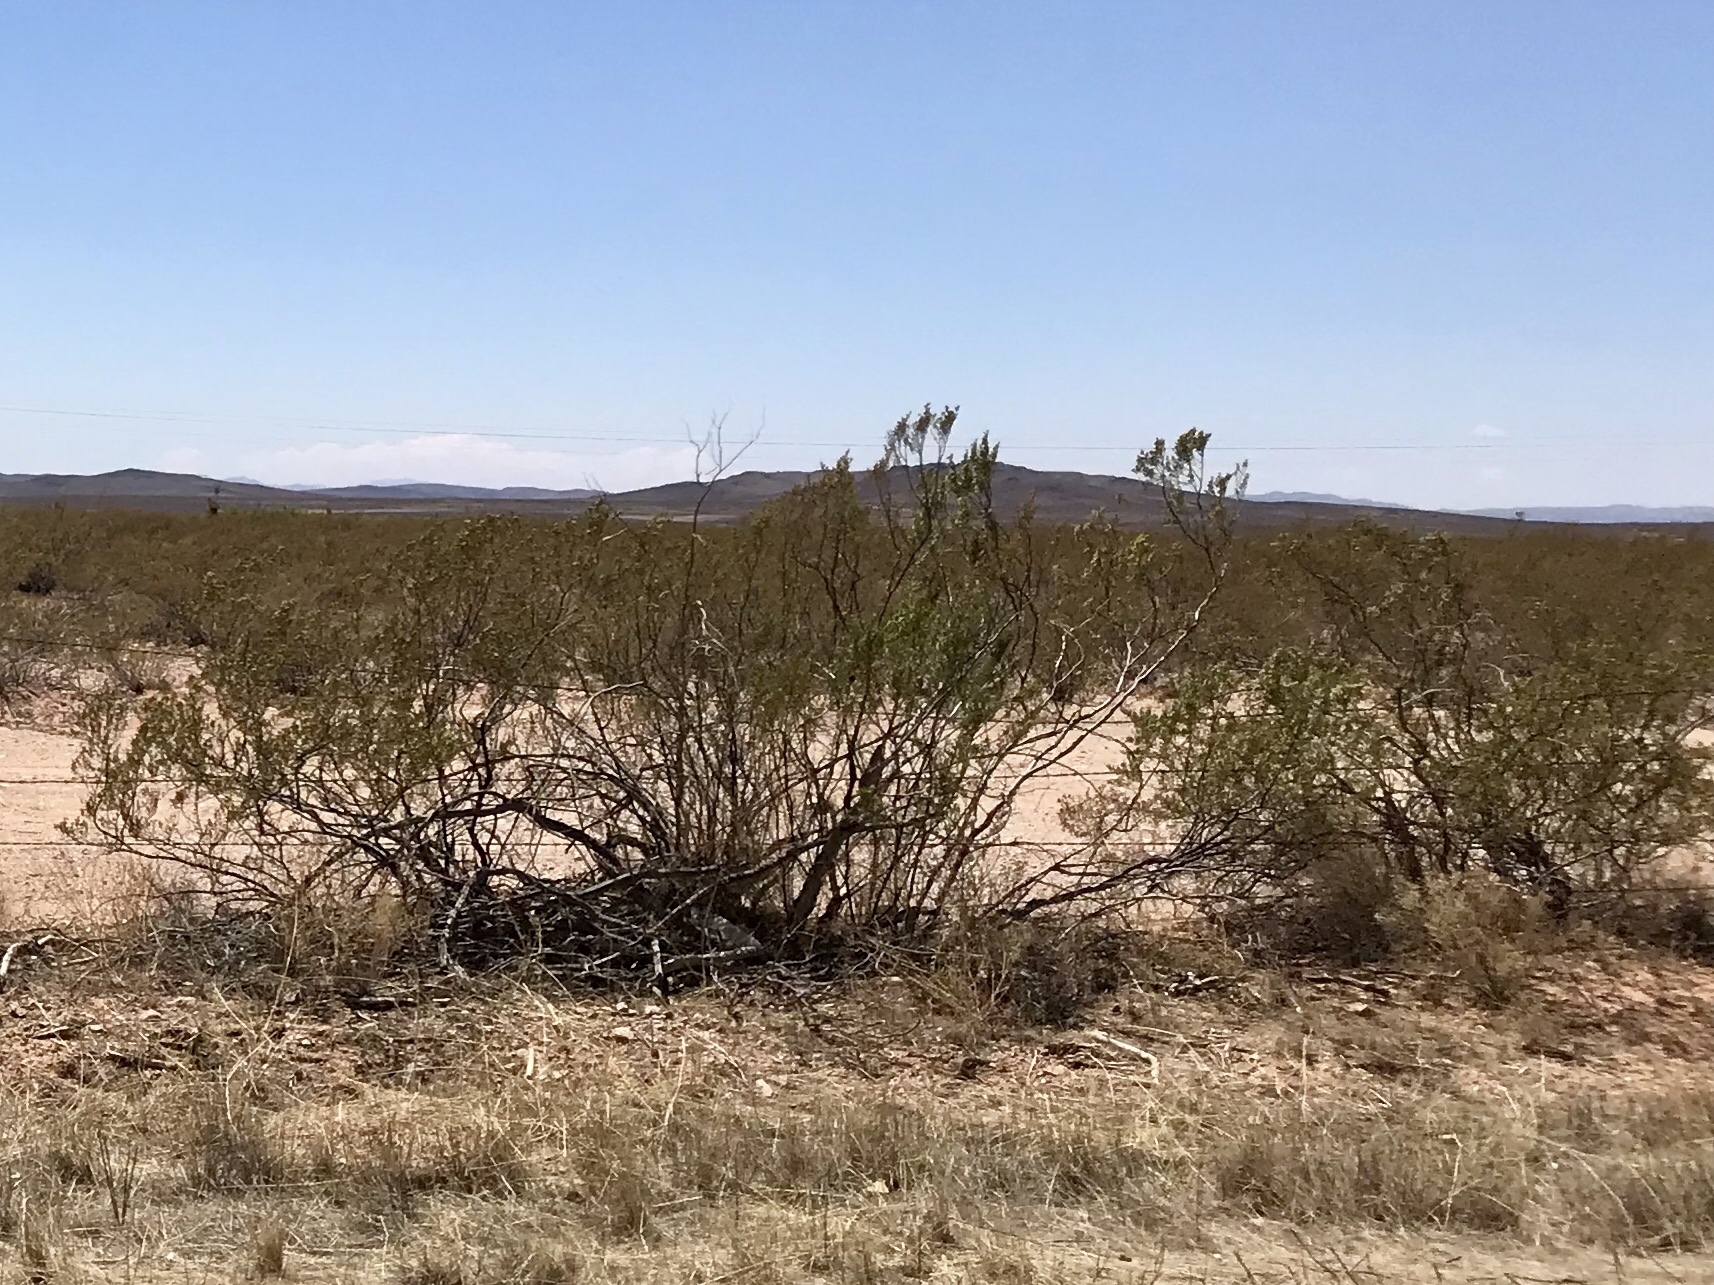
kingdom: Plantae
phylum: Tracheophyta
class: Magnoliopsida
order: Zygophyllales
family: Zygophyllaceae
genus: Larrea
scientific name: Larrea tridentata
